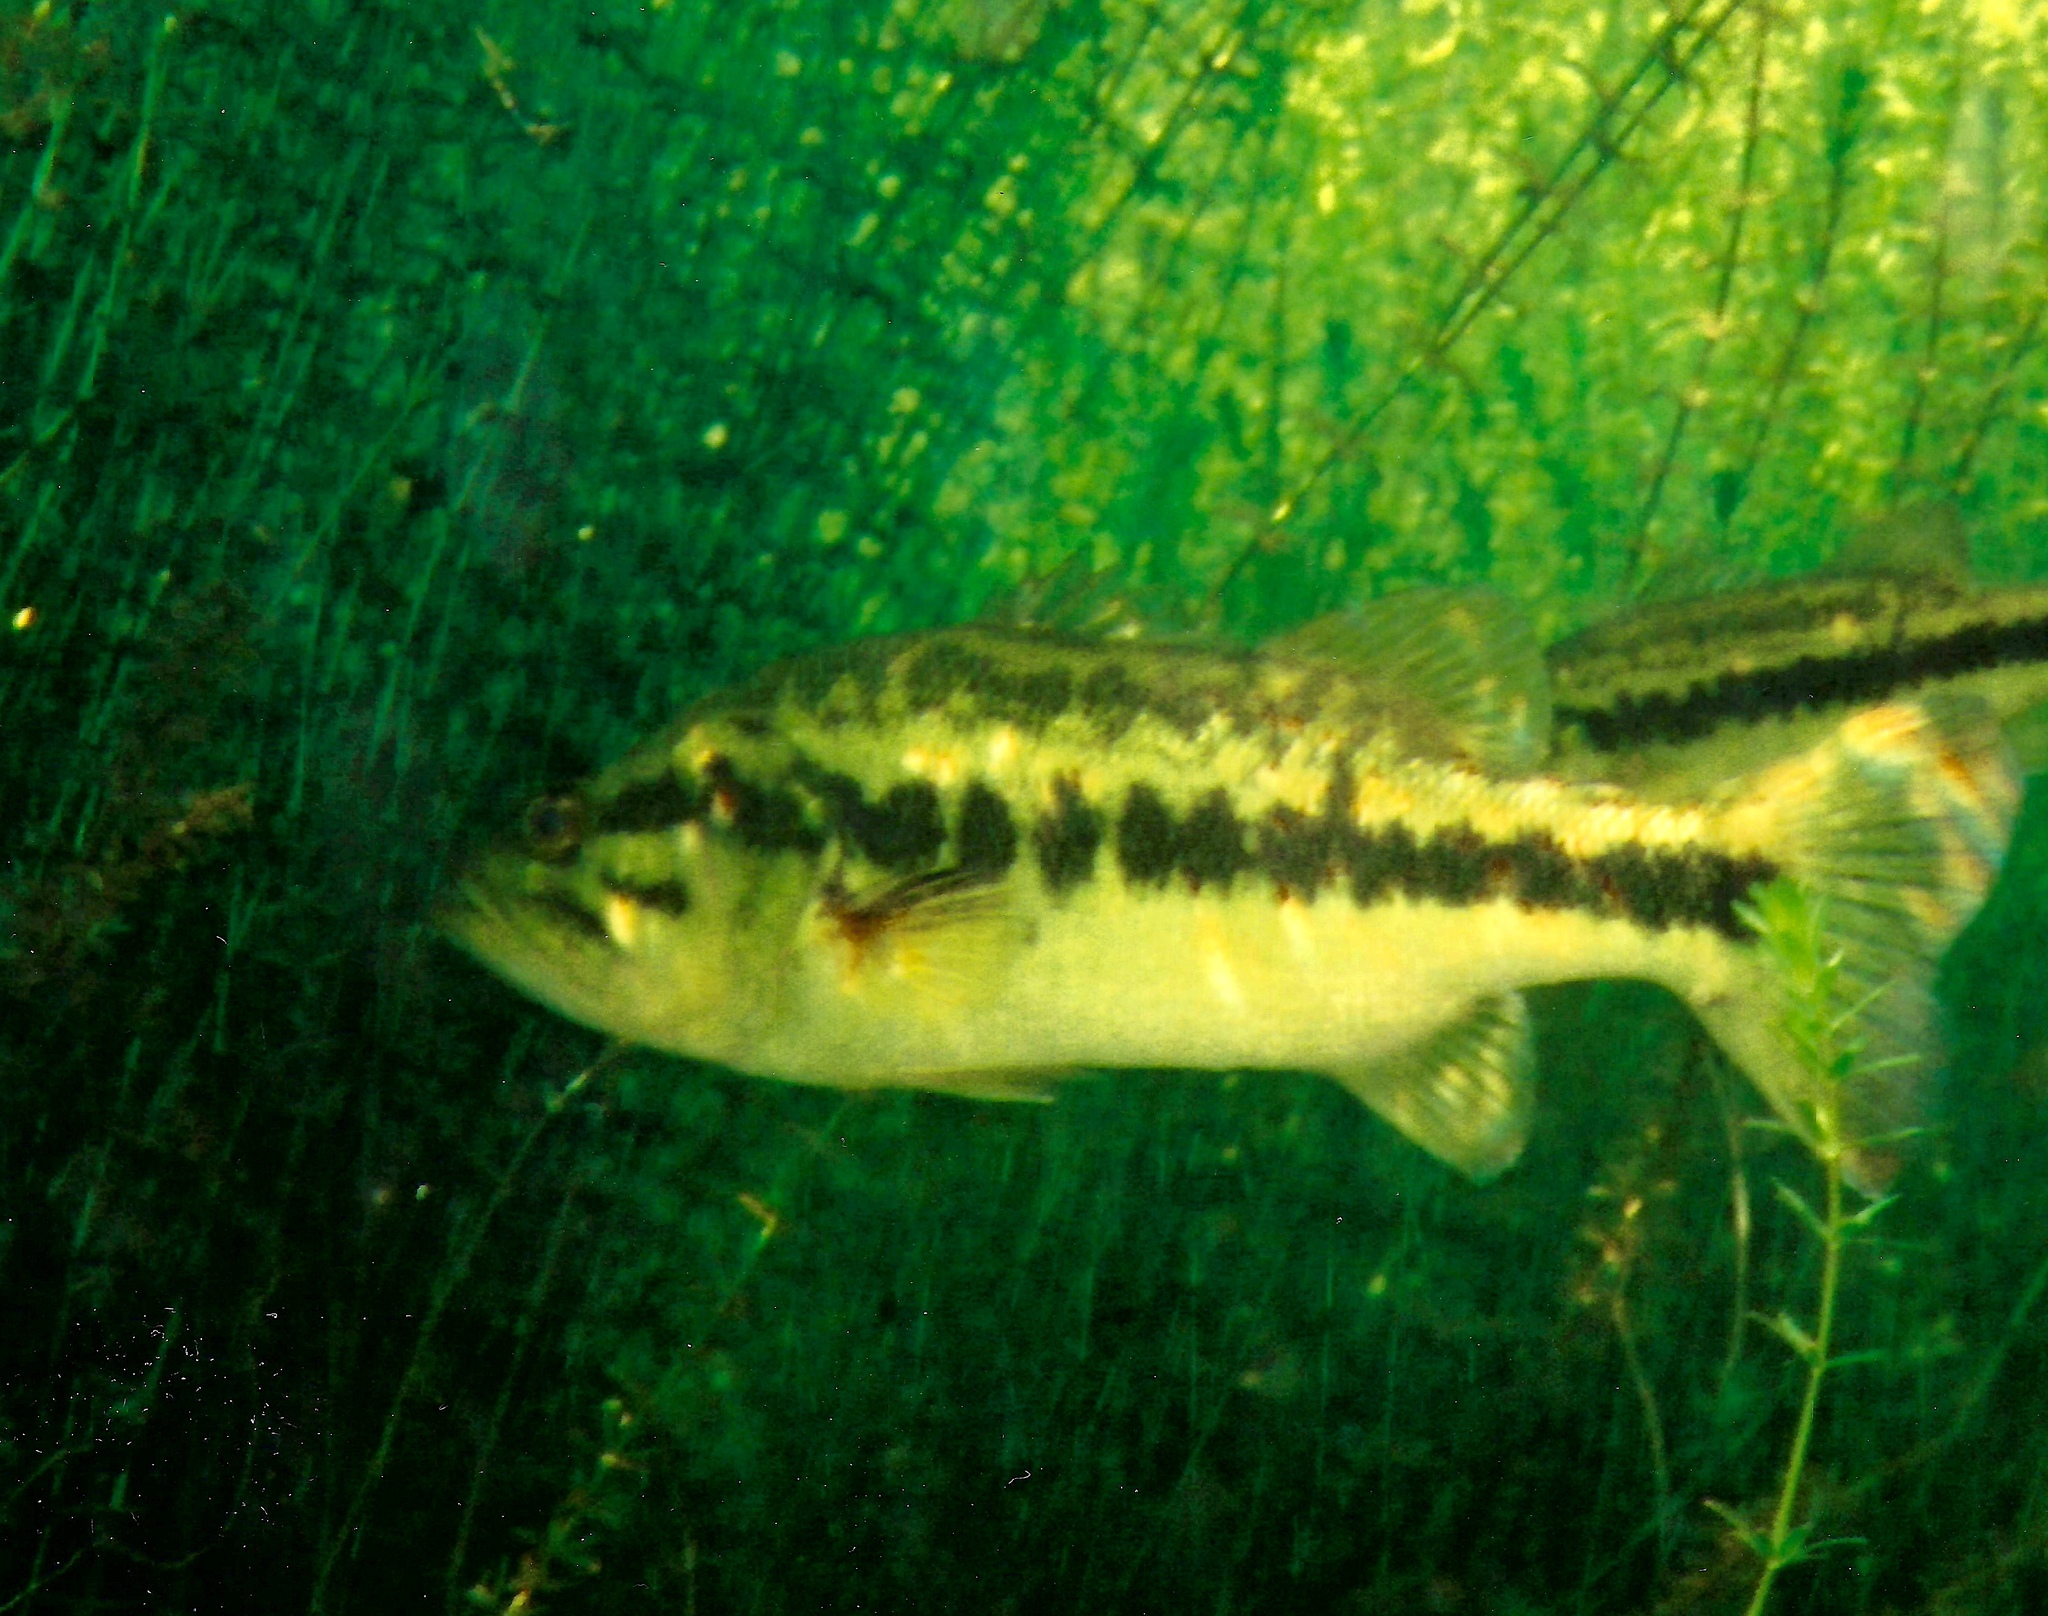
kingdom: Animalia
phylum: Chordata
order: Perciformes
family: Centrarchidae
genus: Micropterus
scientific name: Micropterus salmoides
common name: Largemouth bass
